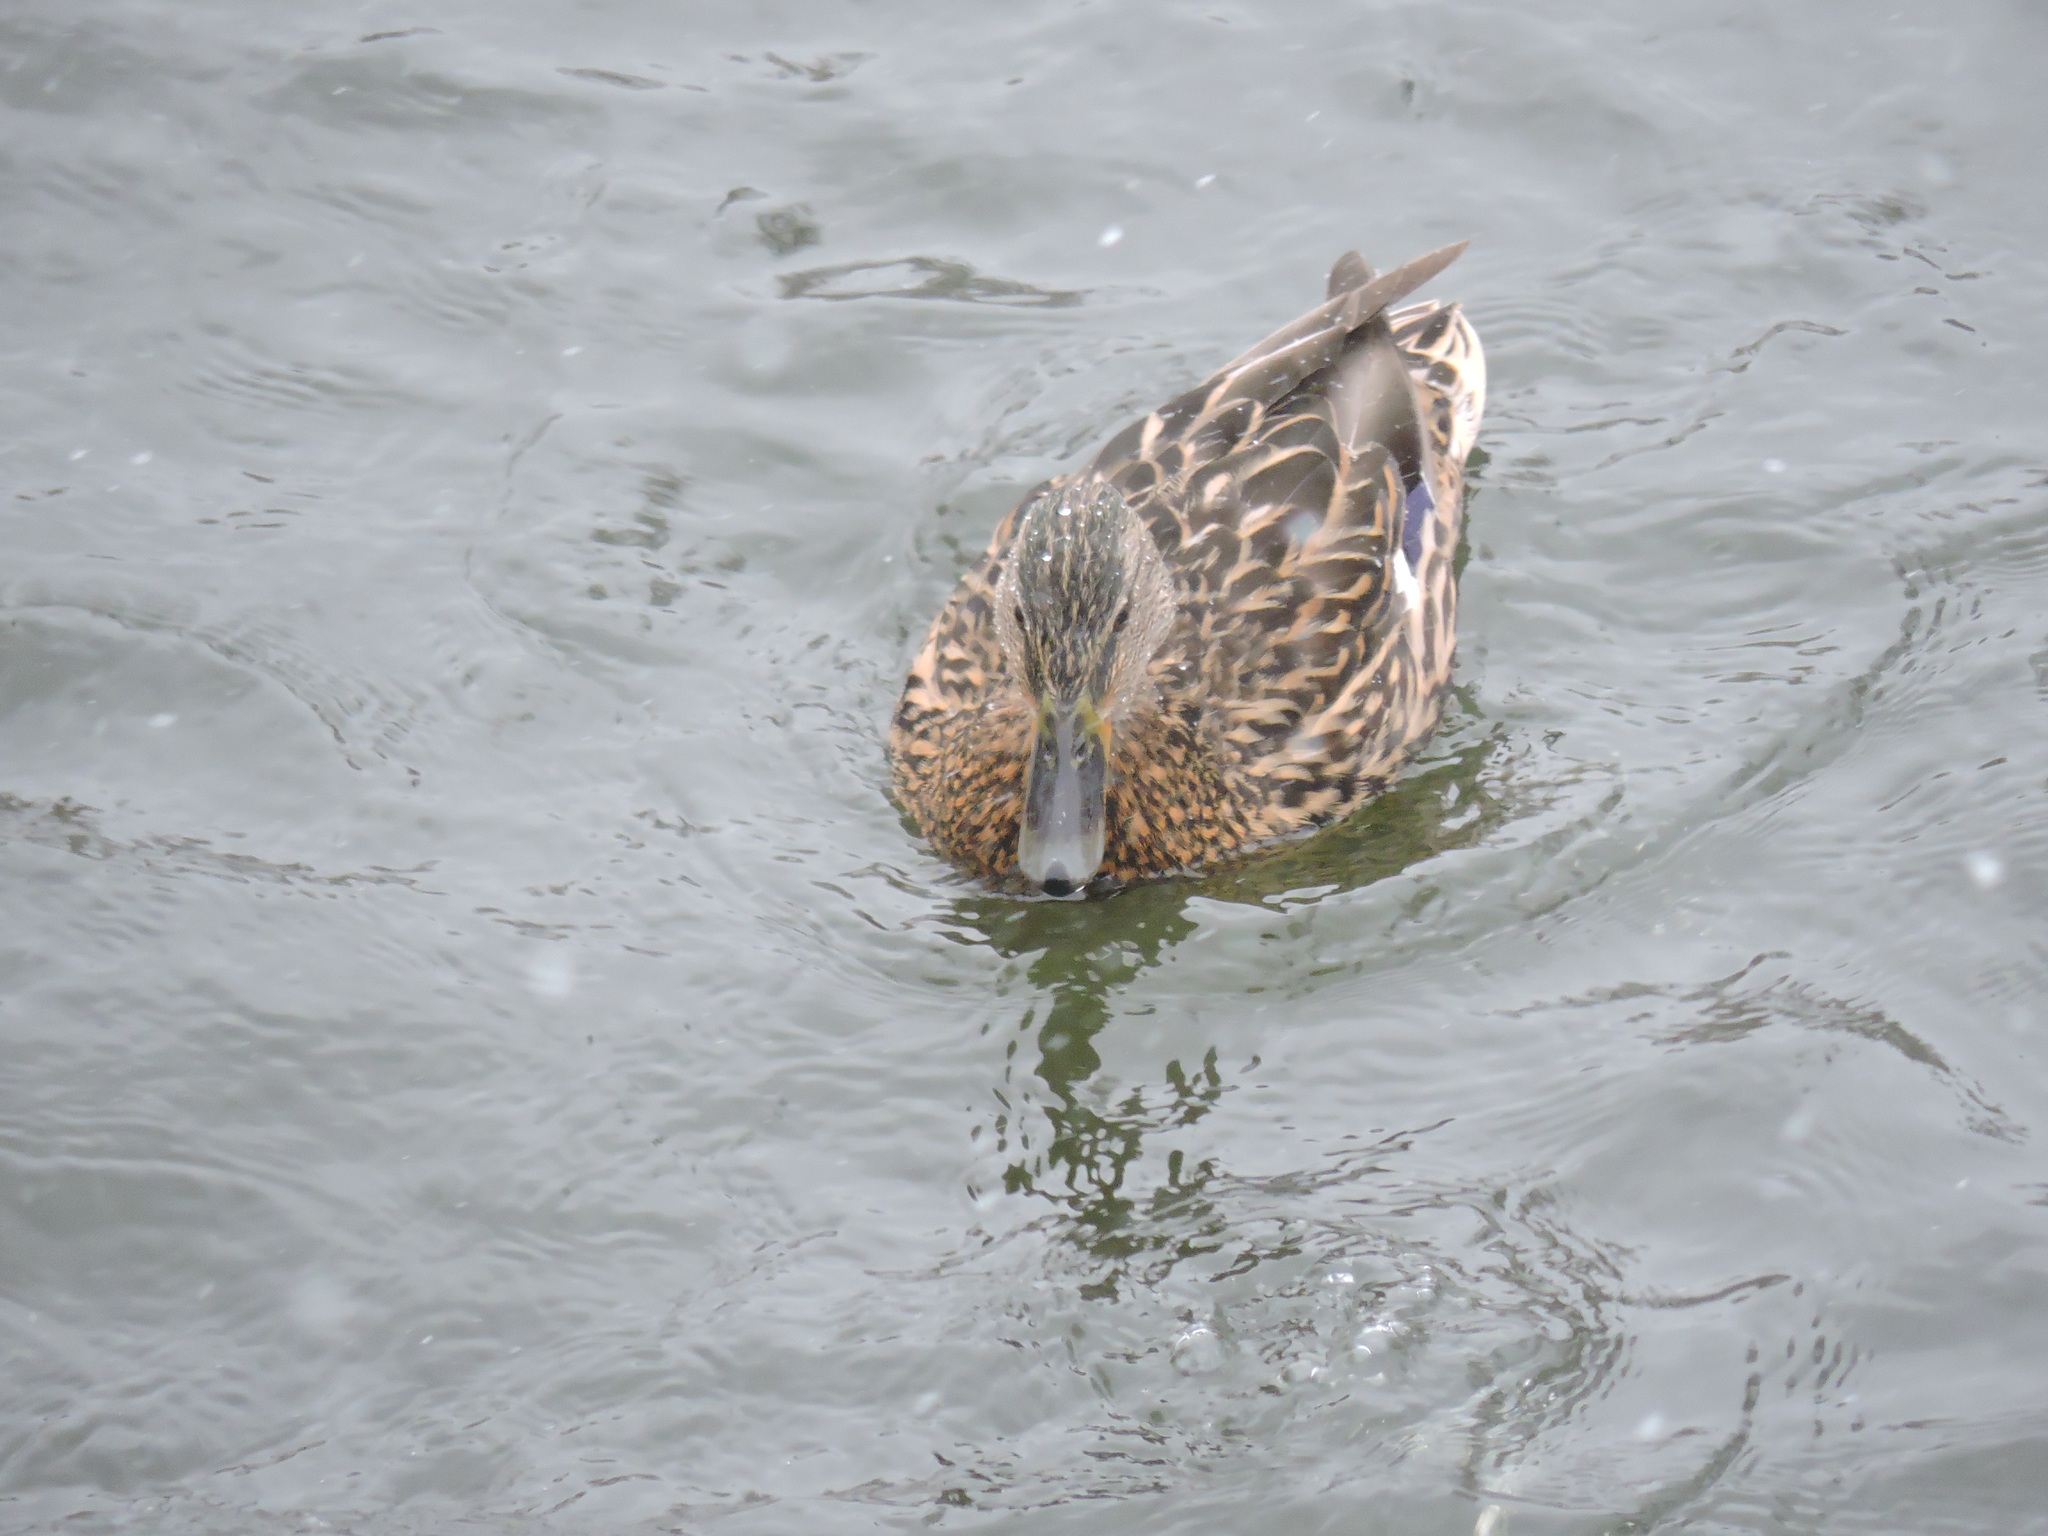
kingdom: Animalia
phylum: Chordata
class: Aves
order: Anseriformes
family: Anatidae
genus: Anas
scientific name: Anas platyrhynchos
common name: Mallard
